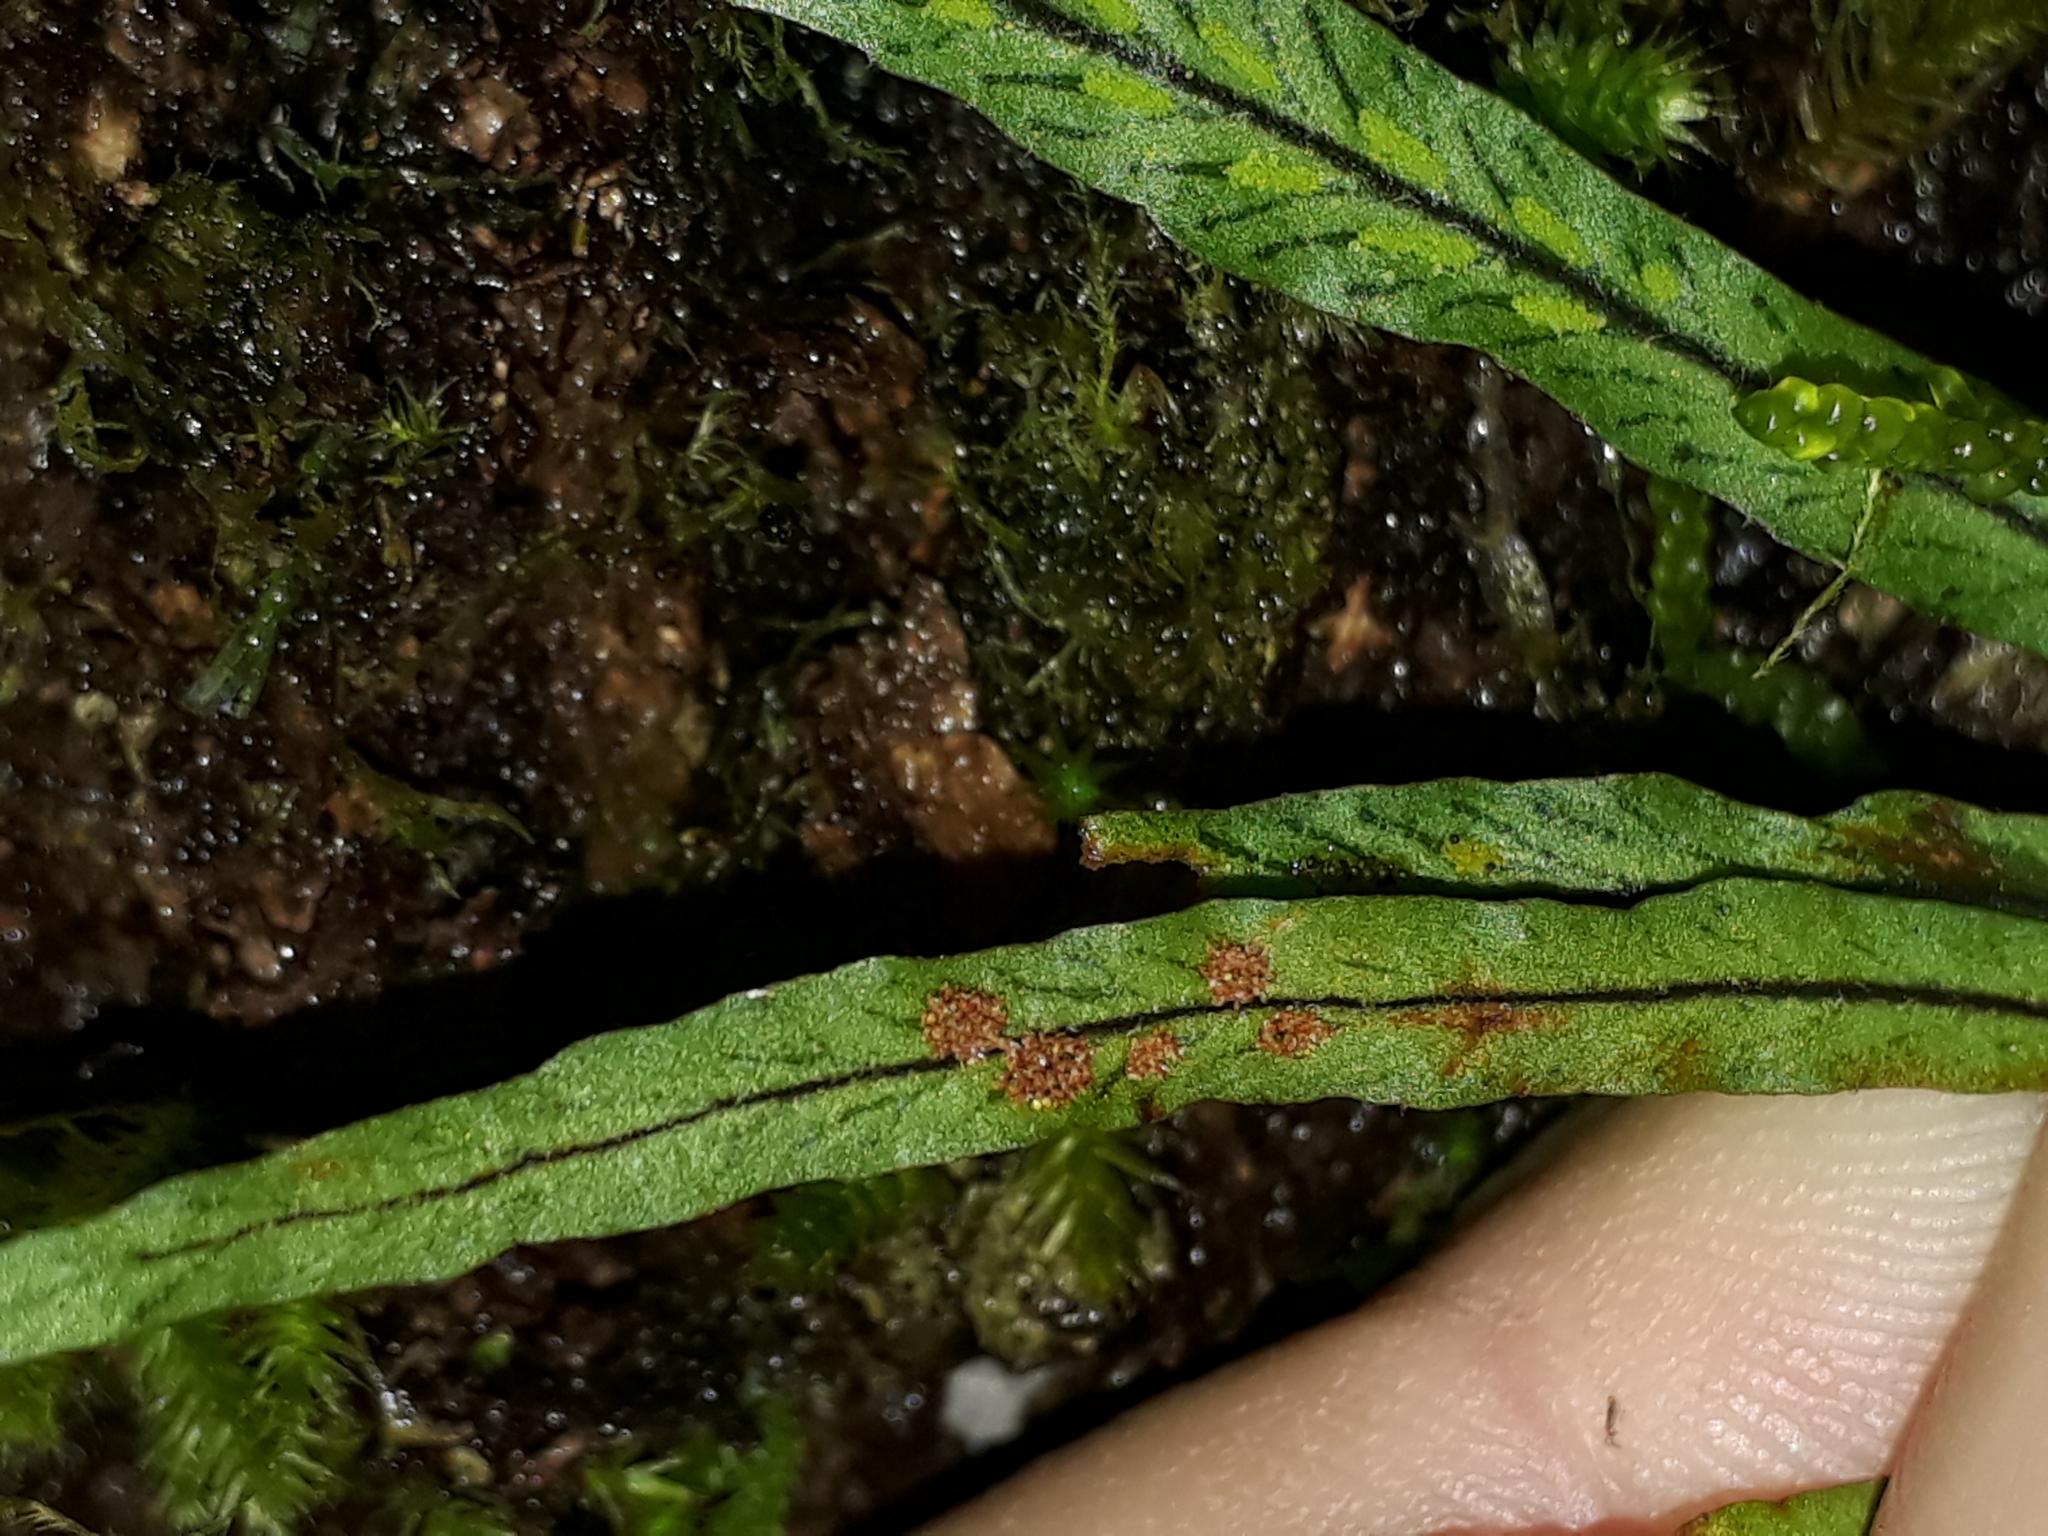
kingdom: Plantae
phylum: Tracheophyta
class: Polypodiopsida
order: Polypodiales
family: Polypodiaceae
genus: Notogrammitis
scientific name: Notogrammitis angustifolia
